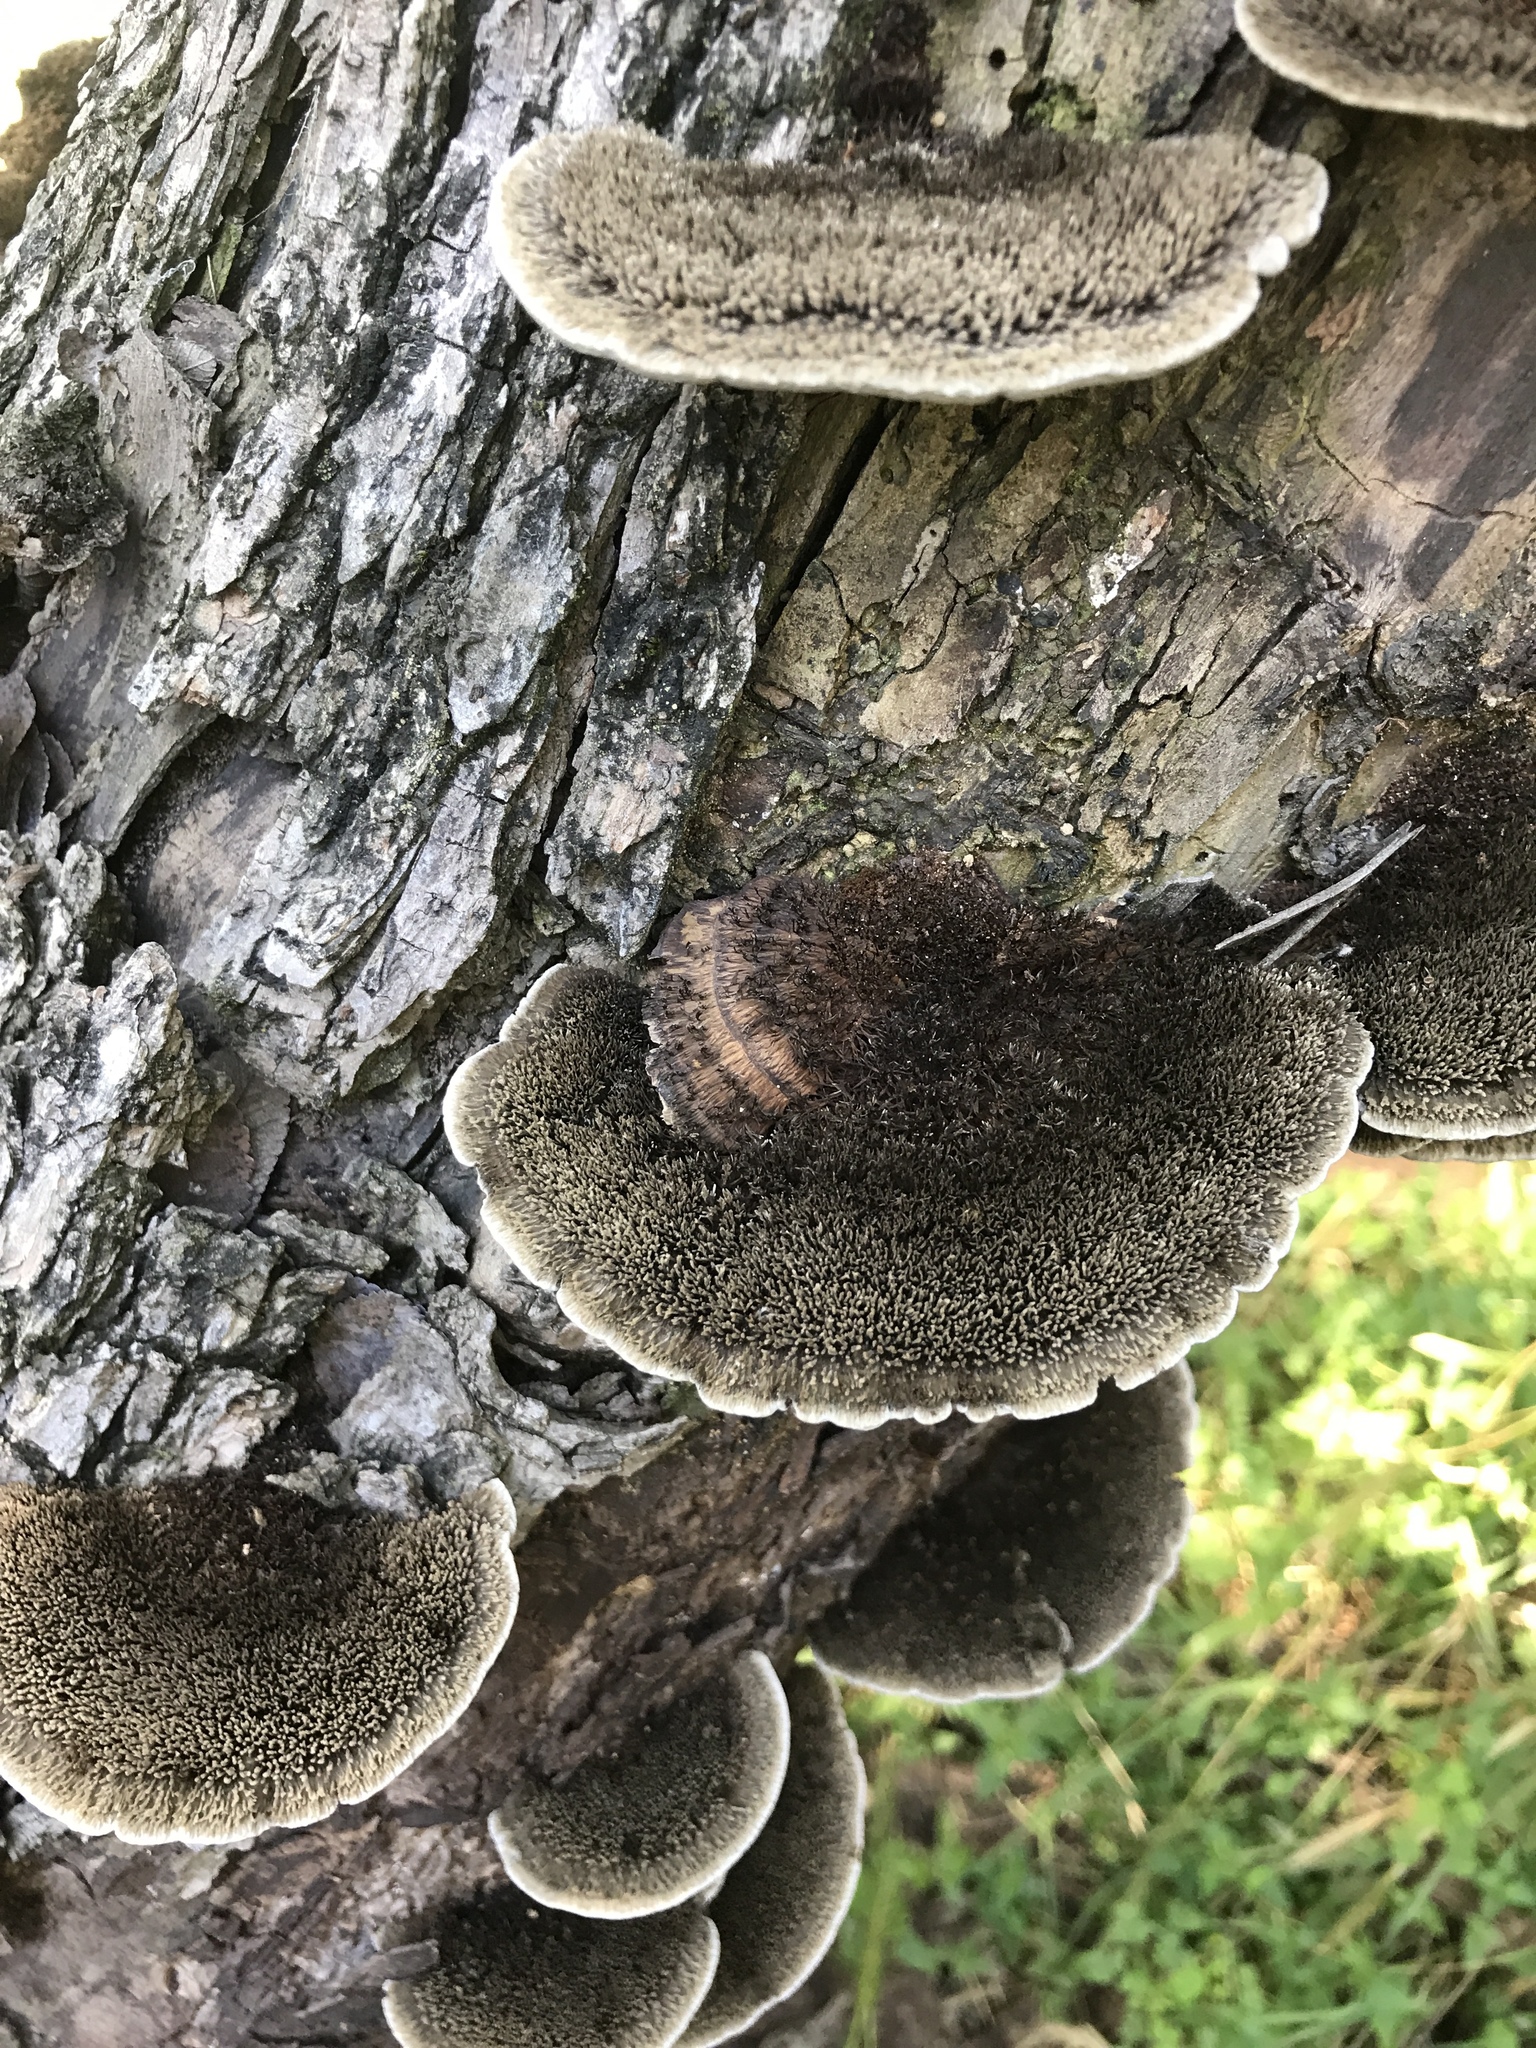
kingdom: Fungi
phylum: Basidiomycota
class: Agaricomycetes
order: Polyporales
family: Cerrenaceae
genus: Cerrena
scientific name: Cerrena hydnoides
